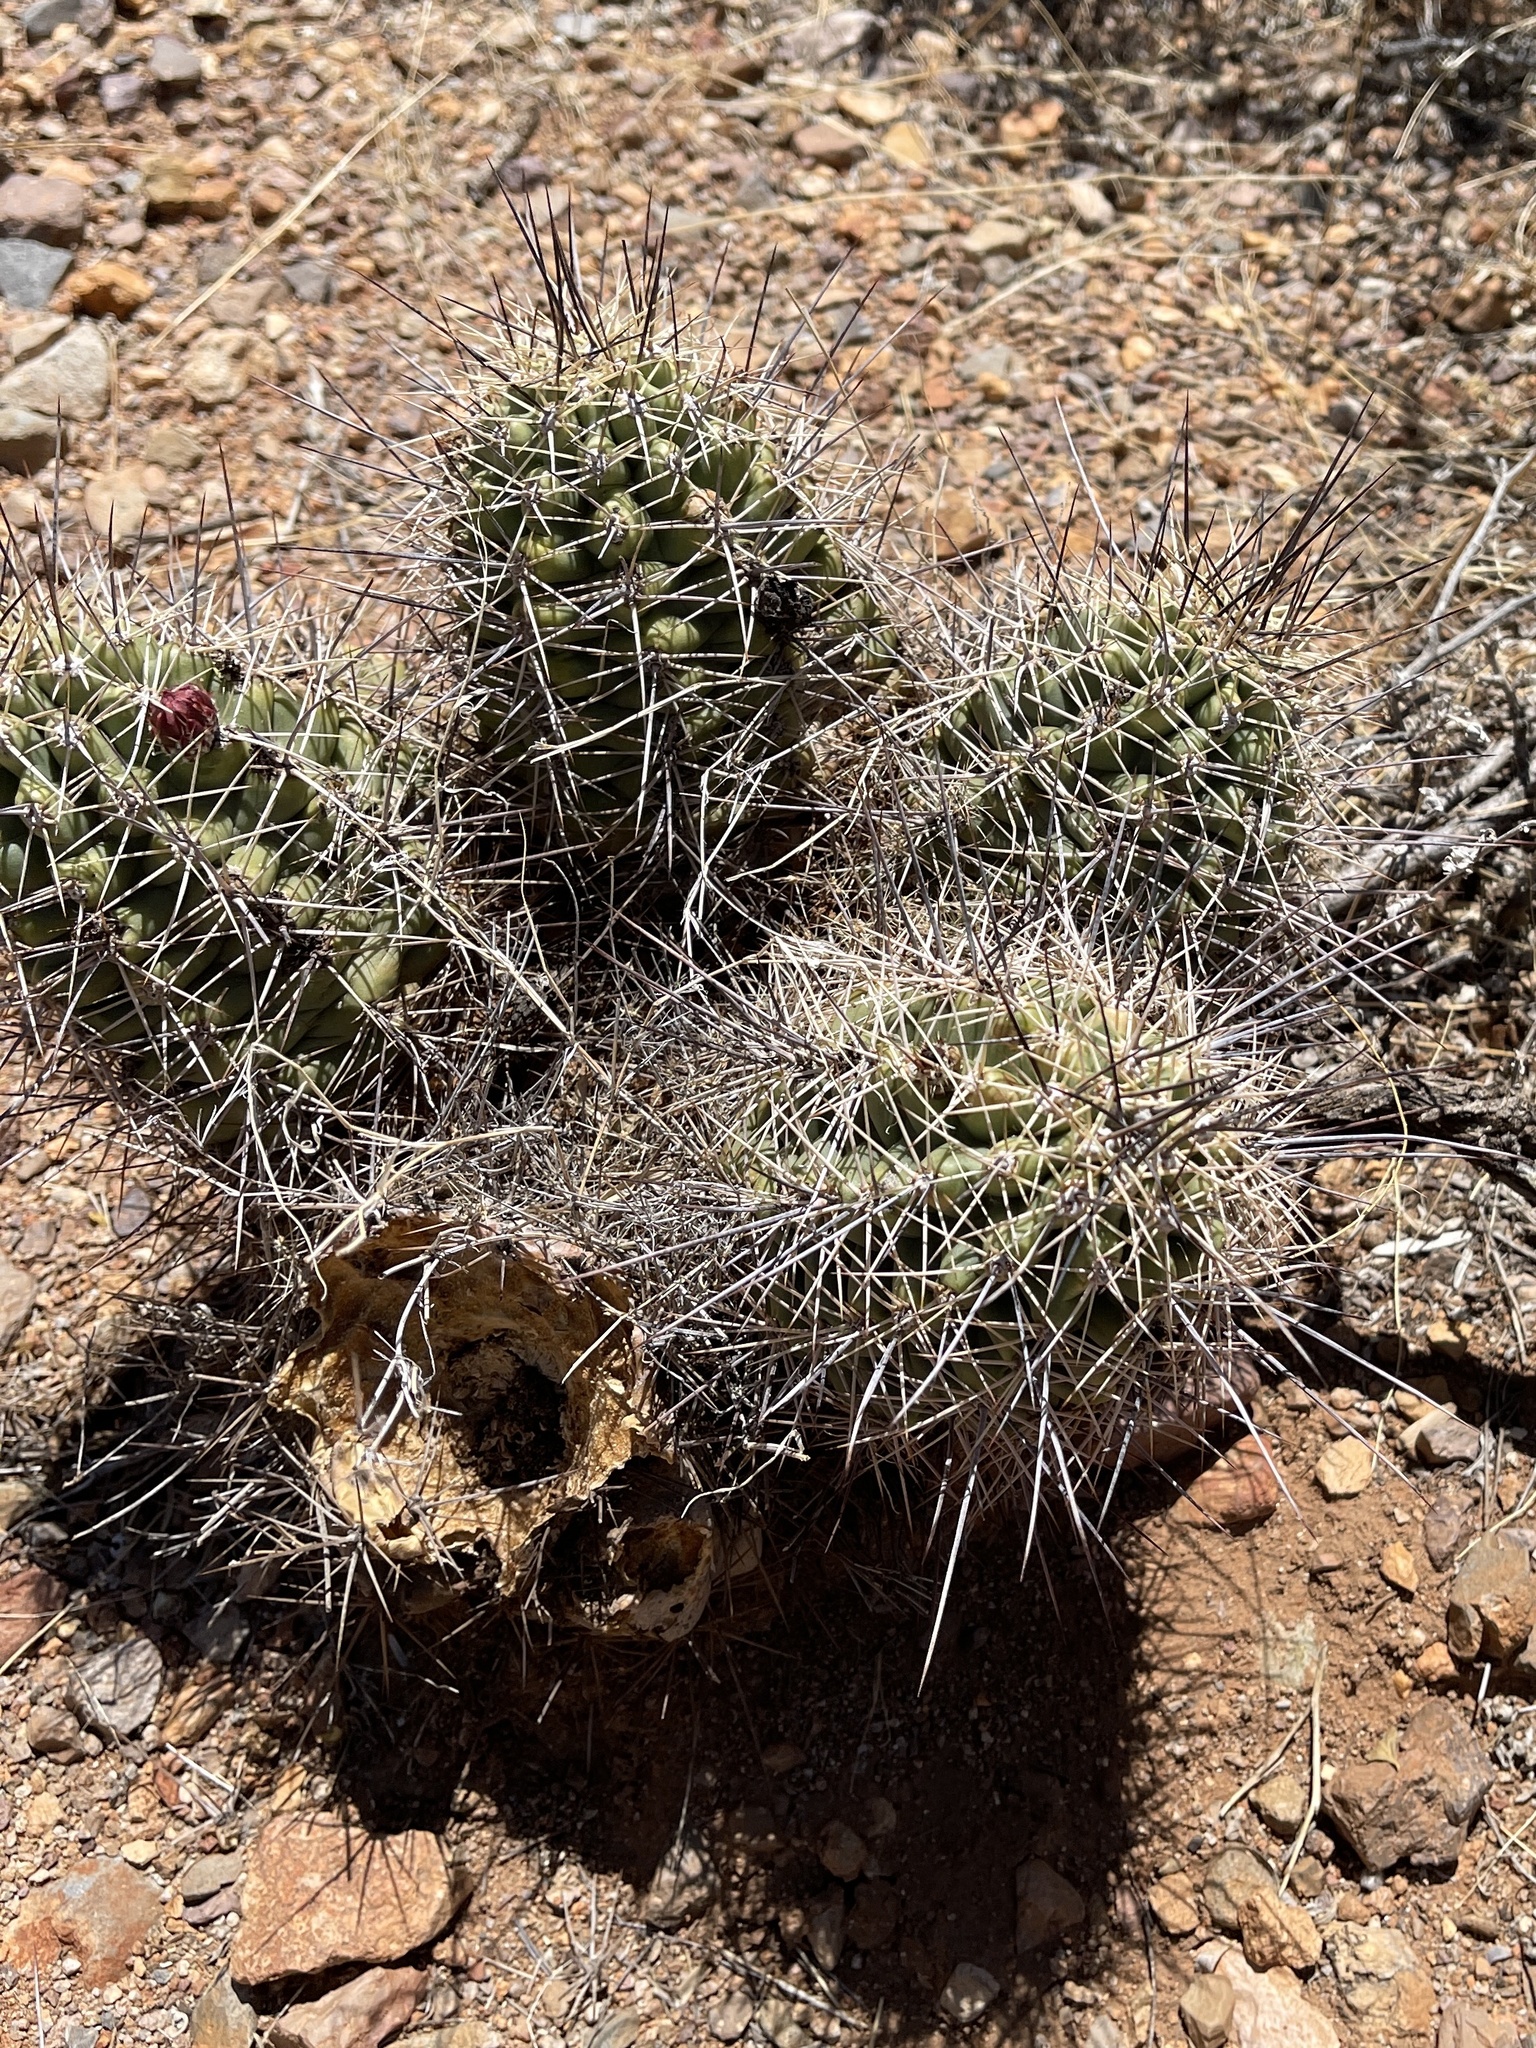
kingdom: Plantae
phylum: Tracheophyta
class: Magnoliopsida
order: Caryophyllales
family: Cactaceae
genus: Echinocereus
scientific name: Echinocereus coccineus
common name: Scarlet hedgehog cactus
